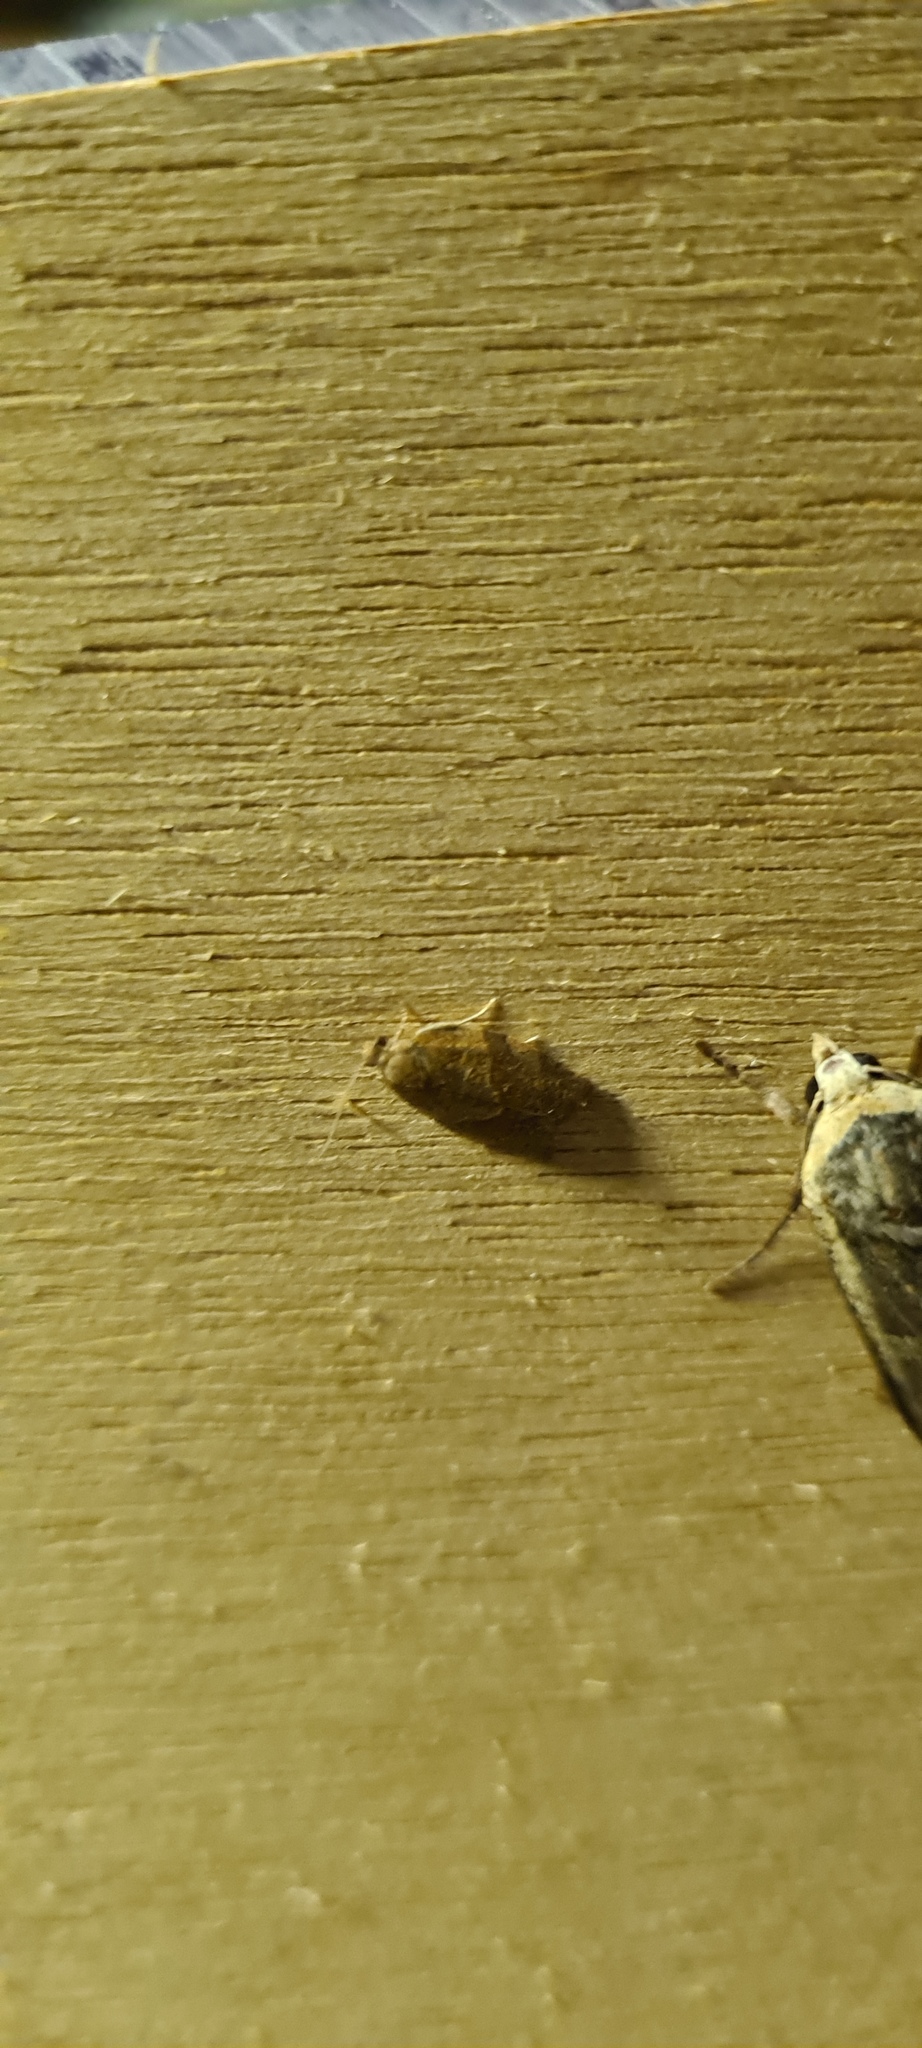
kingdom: Animalia
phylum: Arthropoda
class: Insecta
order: Lepidoptera
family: Tortricidae
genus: Pandemis
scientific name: Pandemis heparana
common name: Dark fruit-tree tortrix
